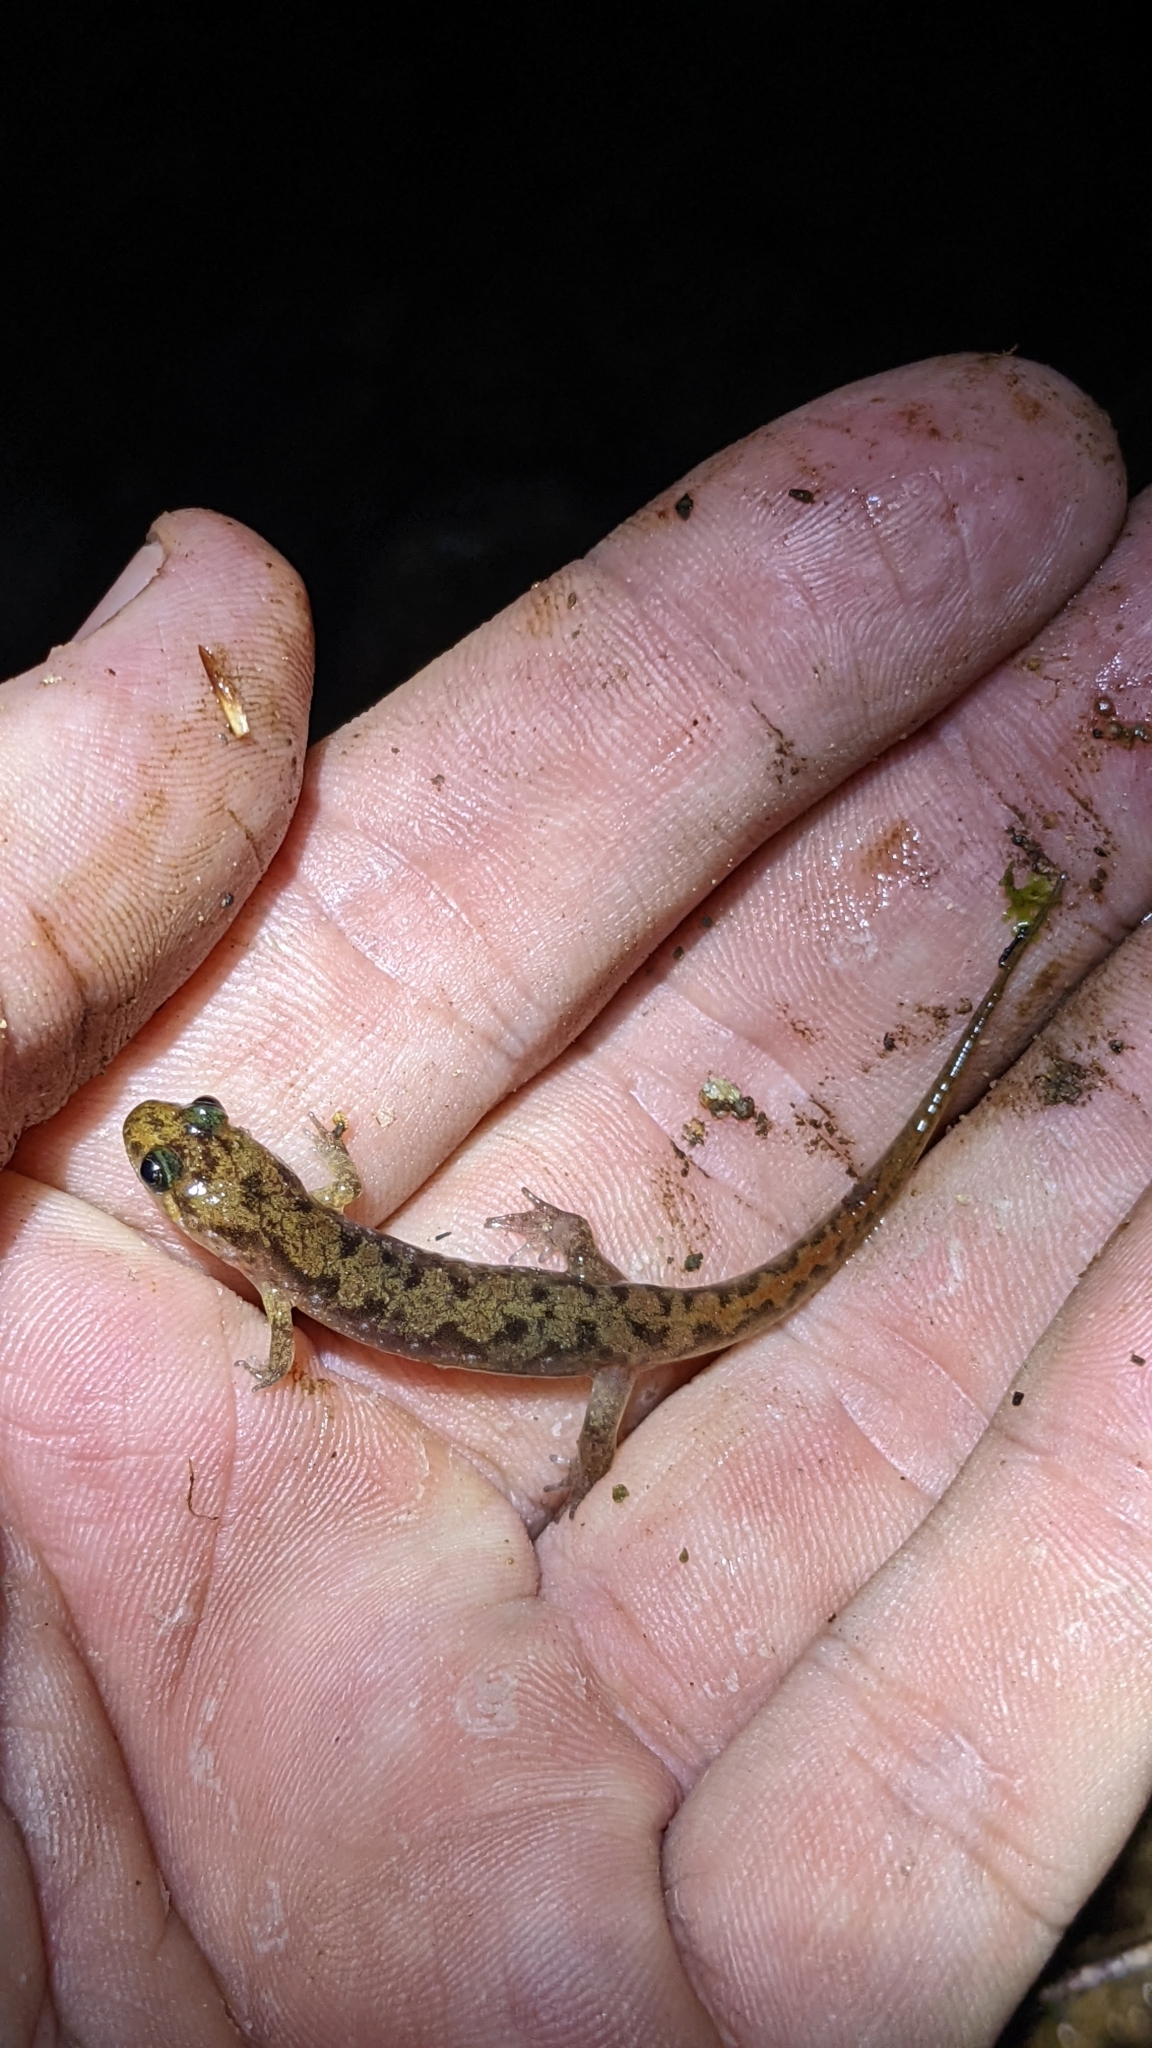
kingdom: Animalia
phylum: Chordata
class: Amphibia
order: Caudata
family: Plethodontidae
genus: Desmognathus
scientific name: Desmognathus monticola
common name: Seal salamander
